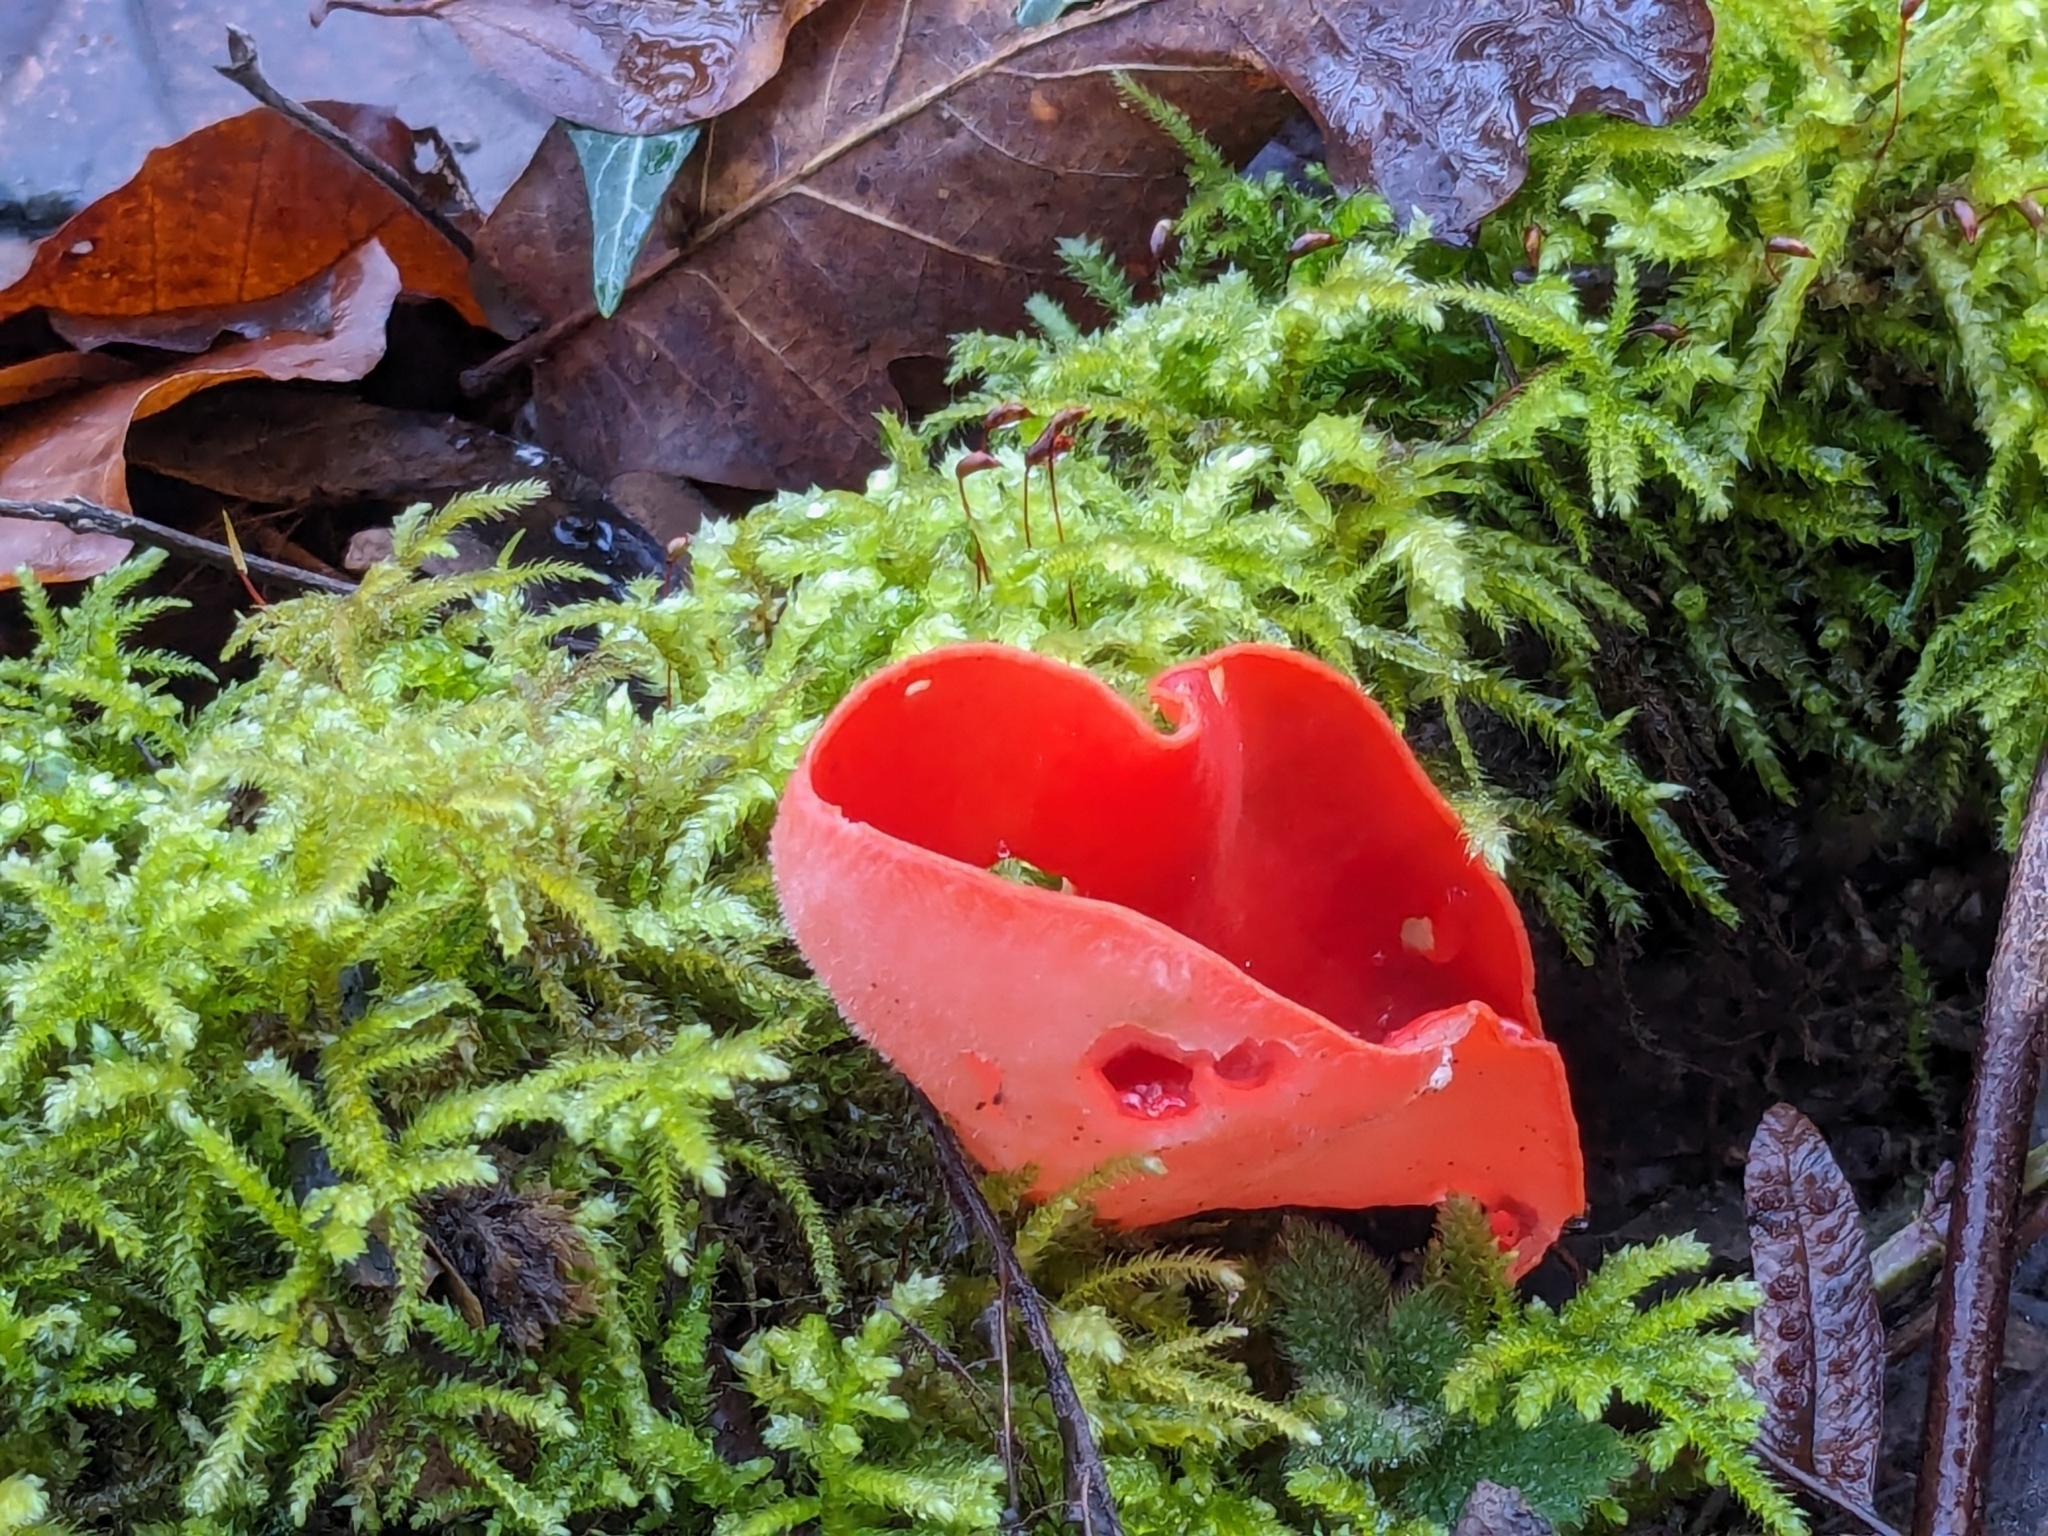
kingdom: Fungi
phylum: Ascomycota
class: Pezizomycetes
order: Pezizales
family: Sarcoscyphaceae
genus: Sarcoscypha
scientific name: Sarcoscypha
